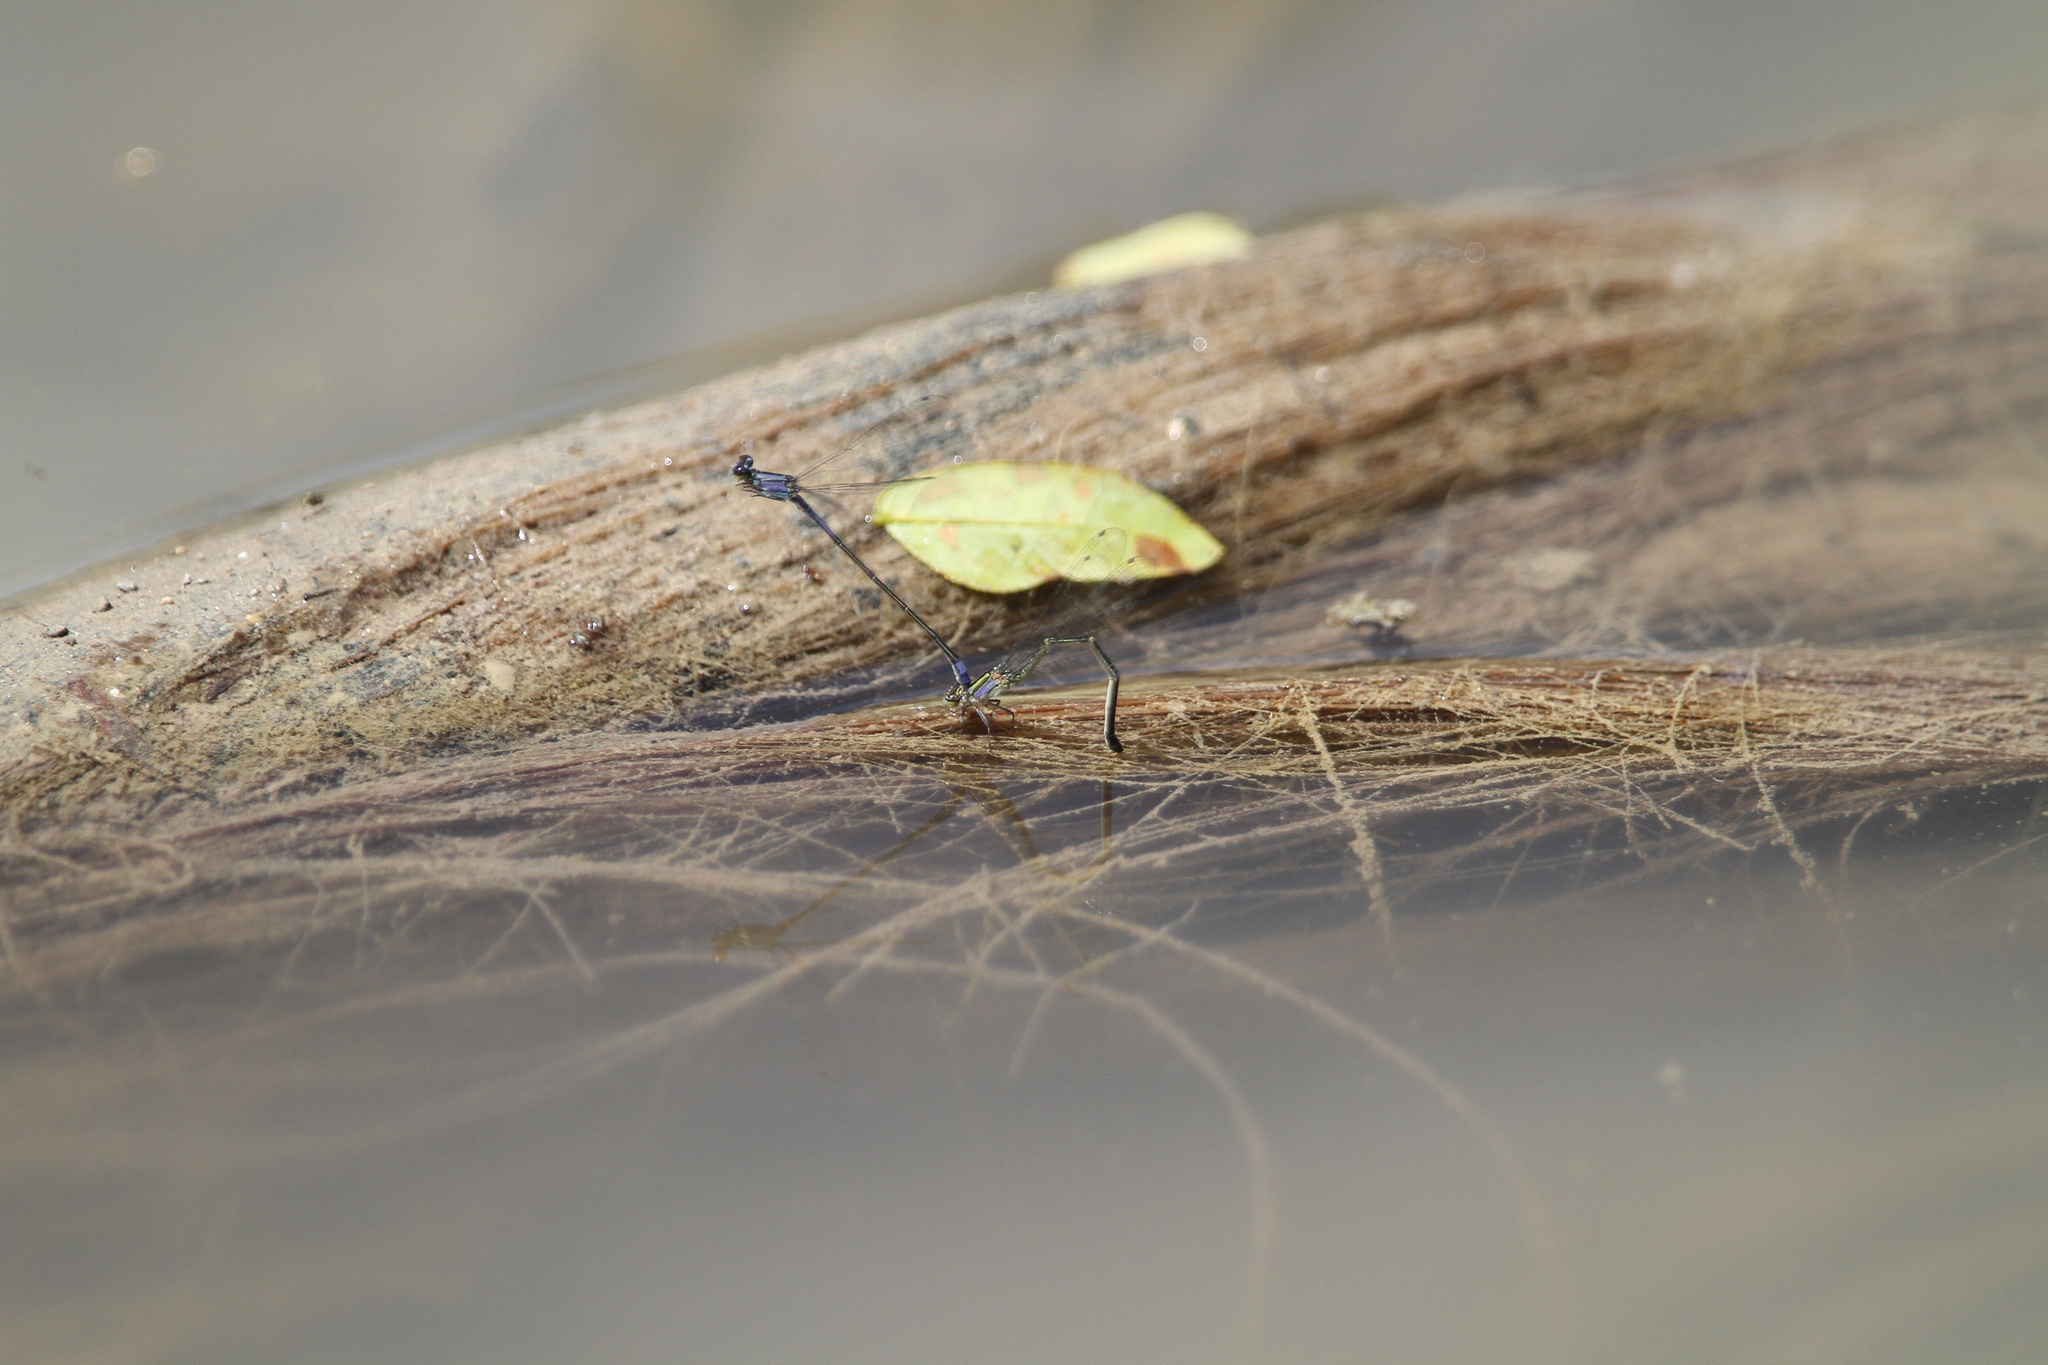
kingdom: Animalia
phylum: Arthropoda
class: Insecta
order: Odonata
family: Coenagrionidae
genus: Enallagma
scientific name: Enallagma cardenium
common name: Purple bluet
